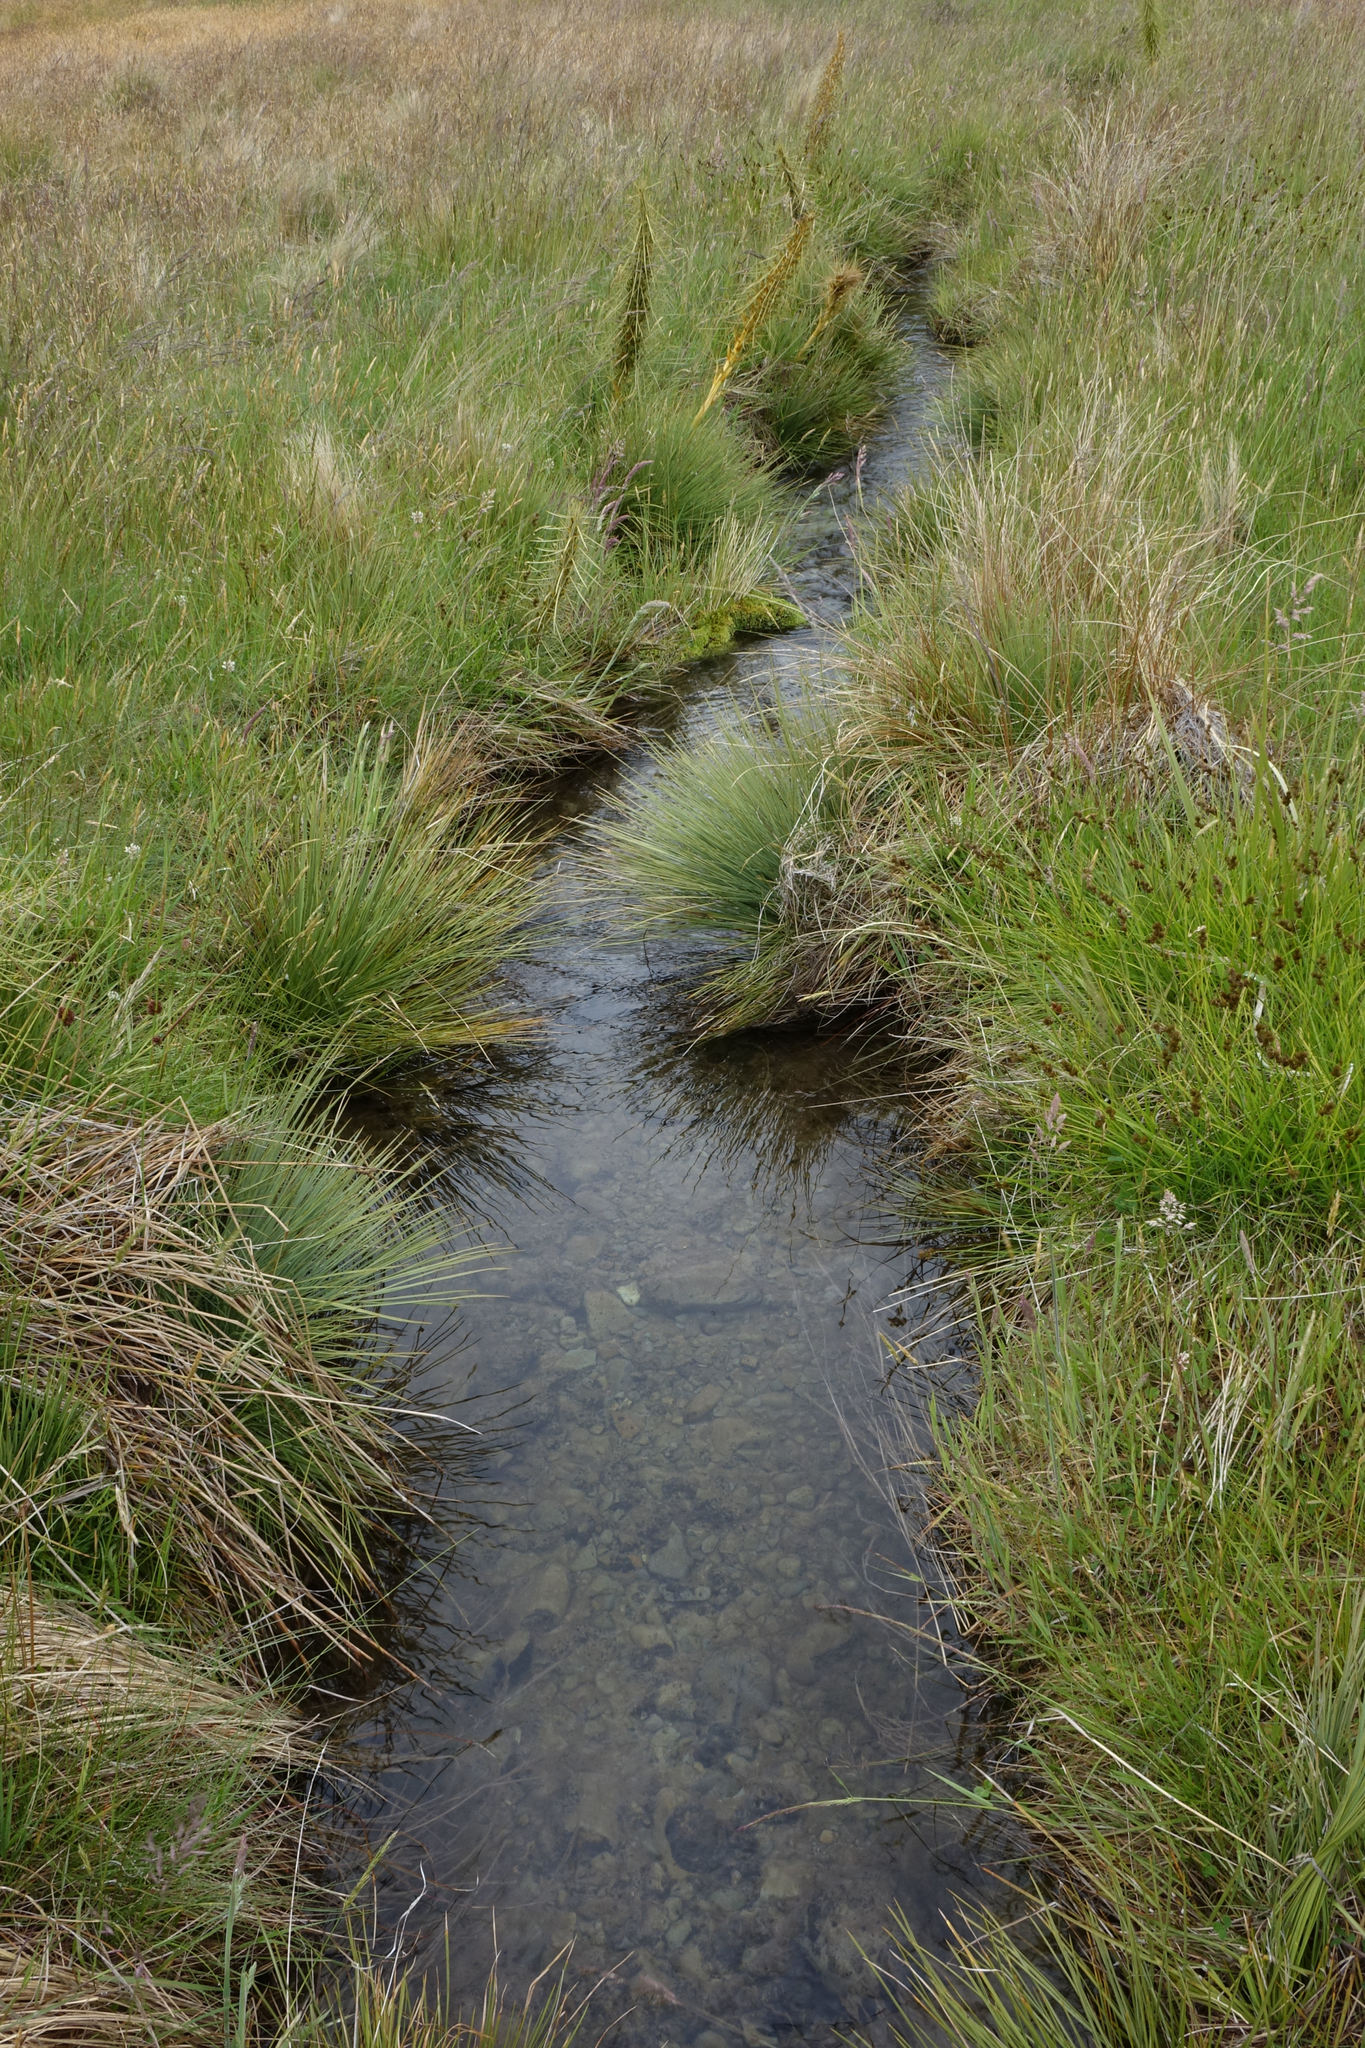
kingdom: Plantae
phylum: Tracheophyta
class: Magnoliopsida
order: Apiales
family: Apiaceae
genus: Aciphylla
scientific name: Aciphylla subflabellata
